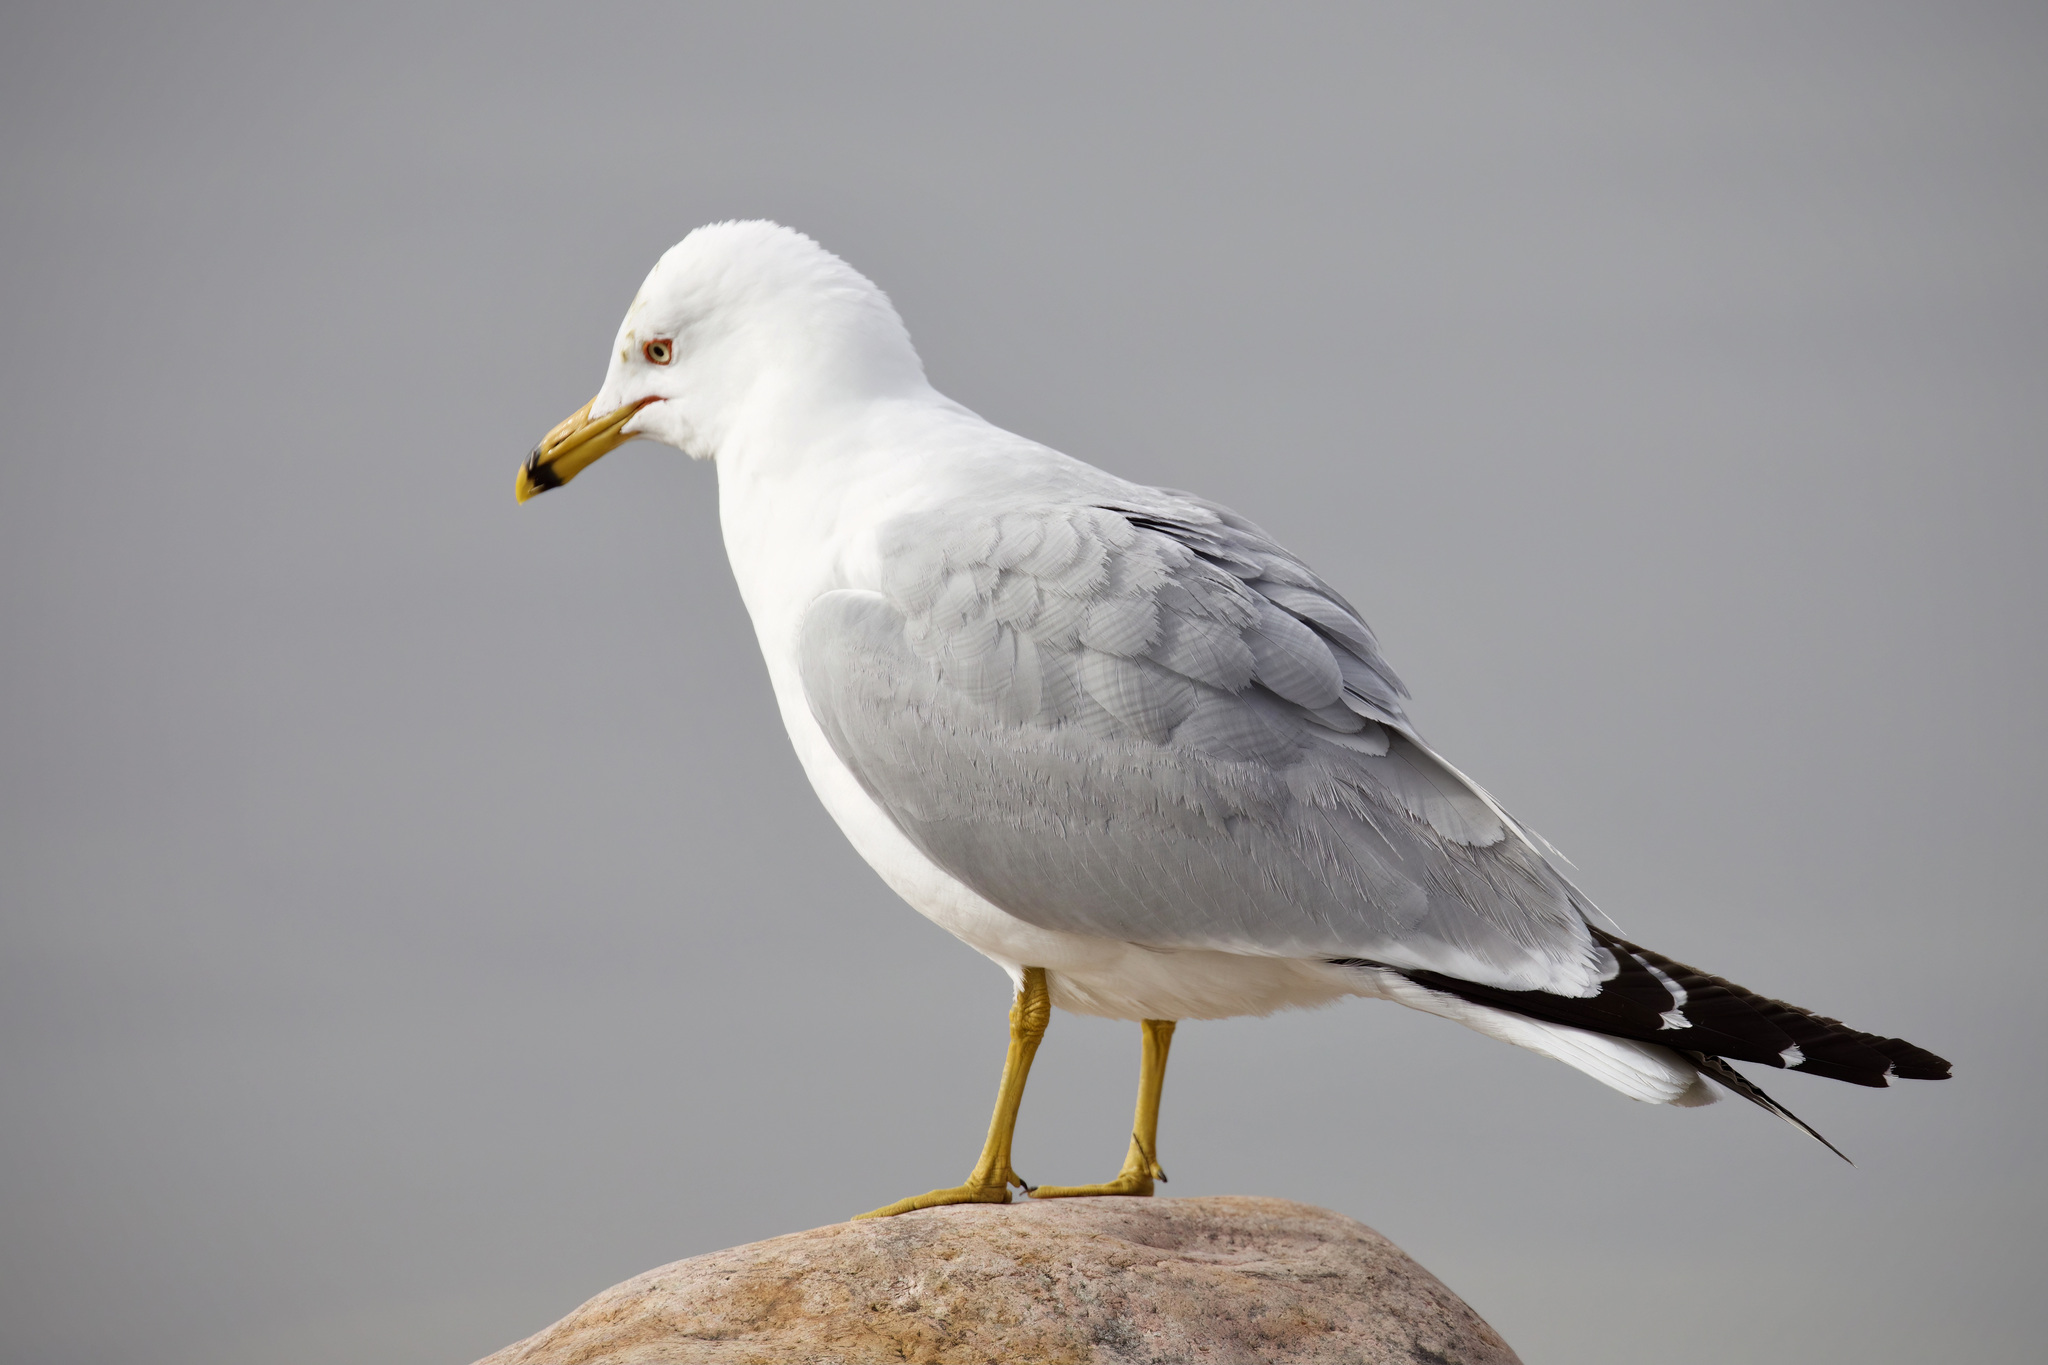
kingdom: Animalia
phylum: Chordata
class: Aves
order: Charadriiformes
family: Laridae
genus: Larus
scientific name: Larus delawarensis
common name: Ring-billed gull
